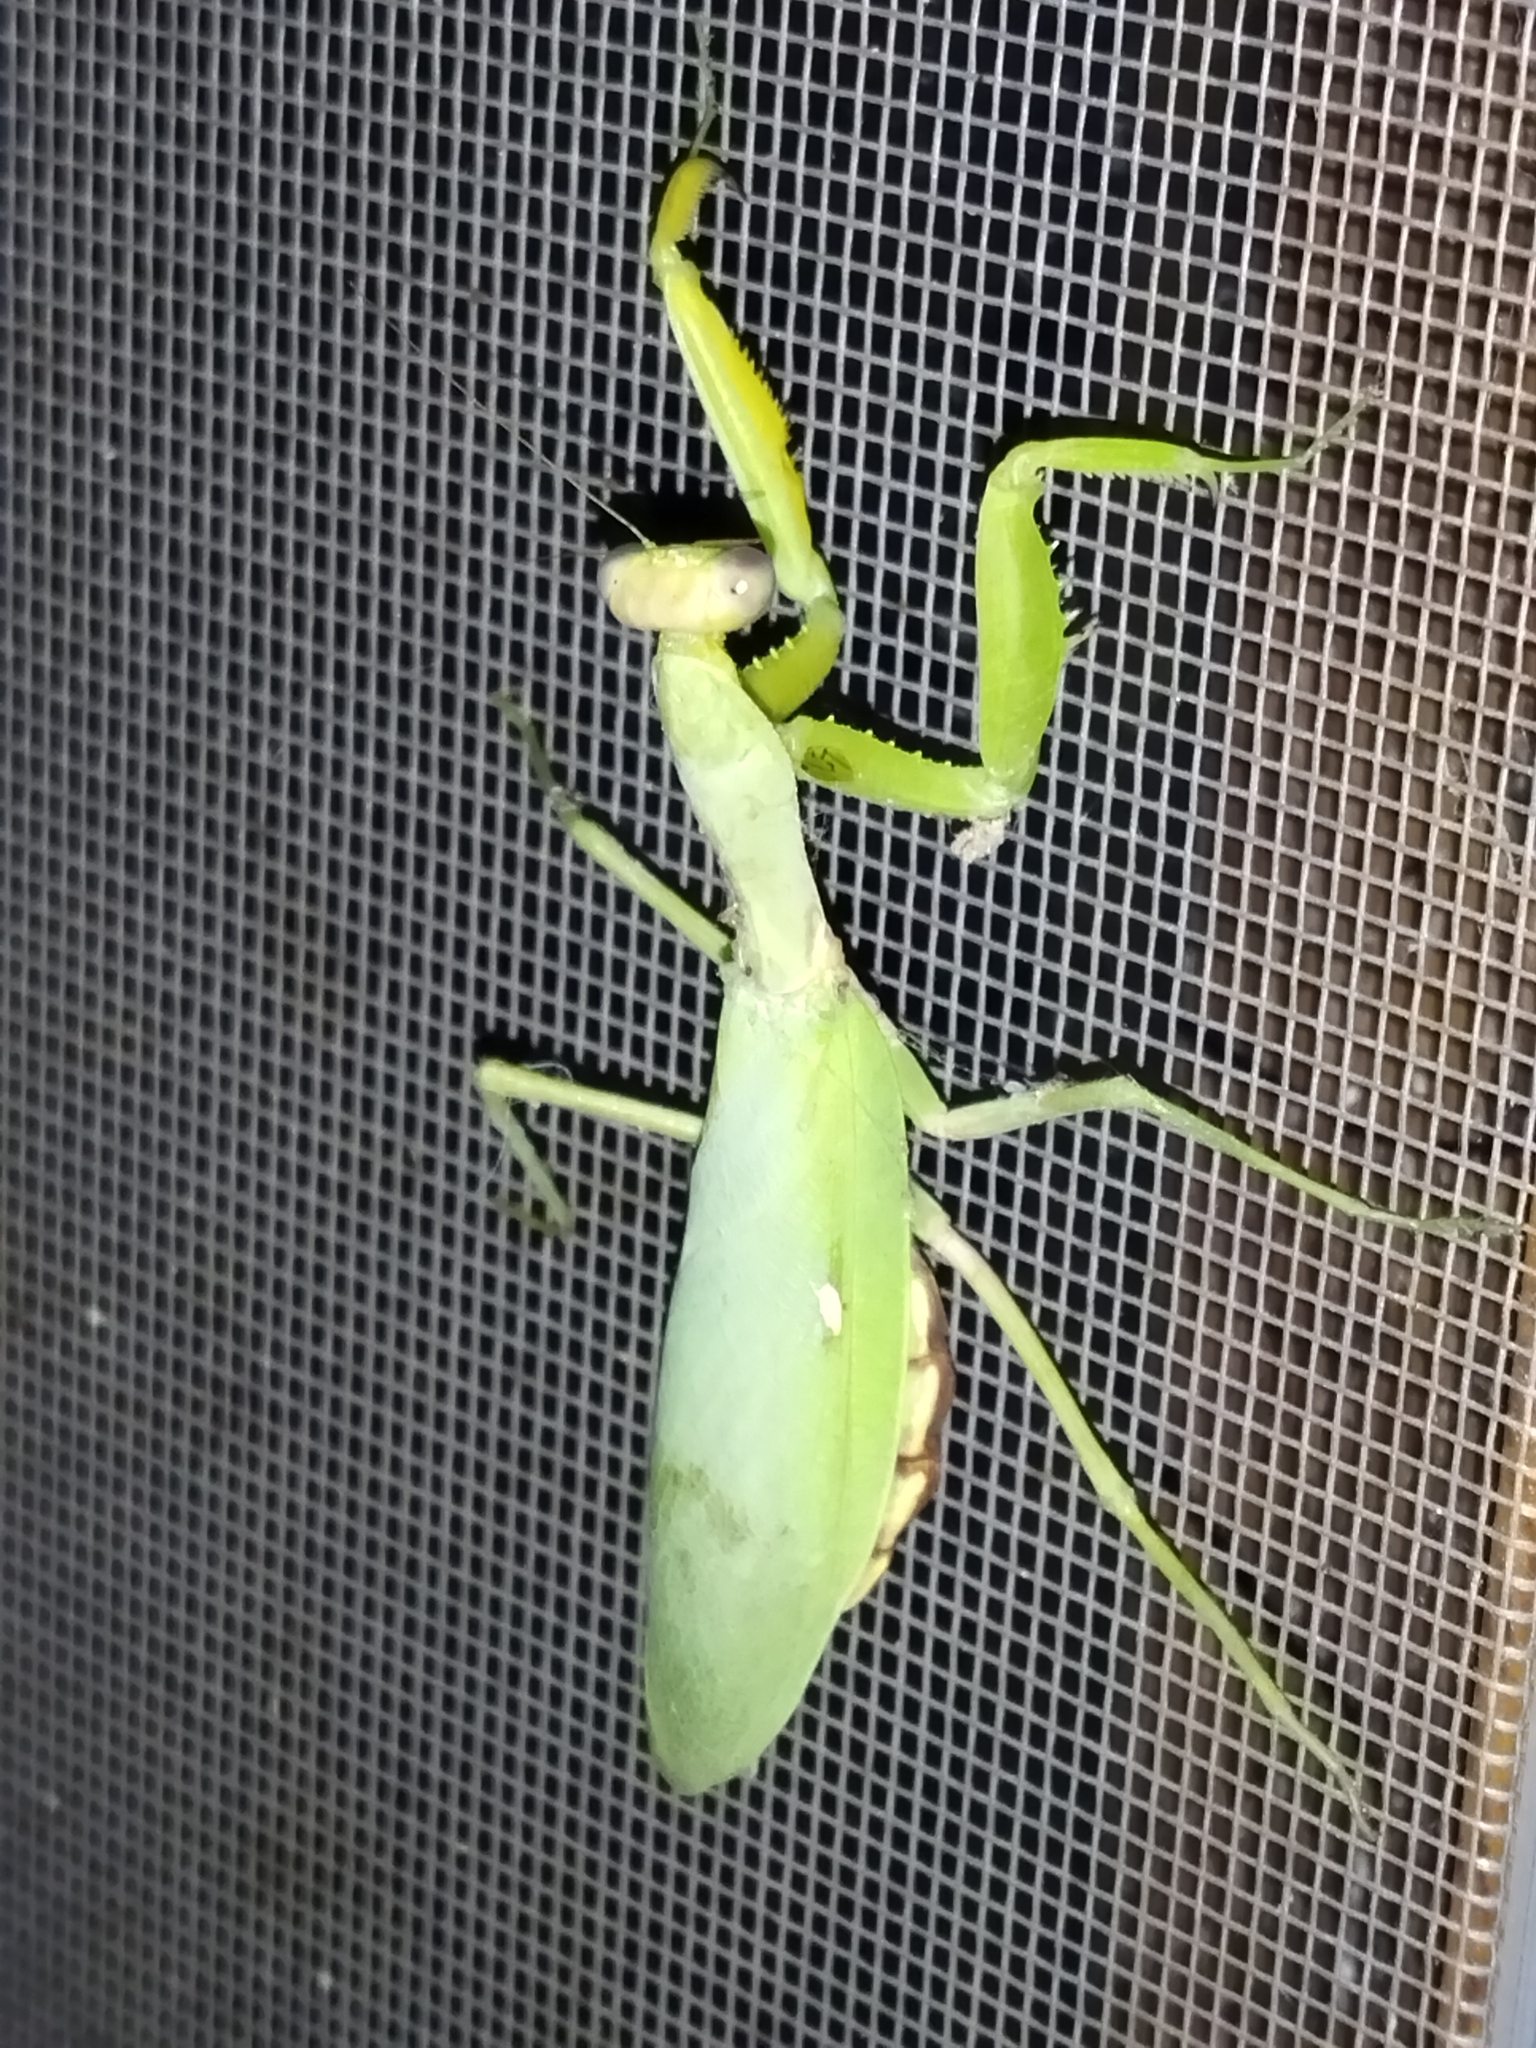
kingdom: Animalia
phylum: Arthropoda
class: Insecta
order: Mantodea
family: Mantidae
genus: Hierodula
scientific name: Hierodula transcaucasica
